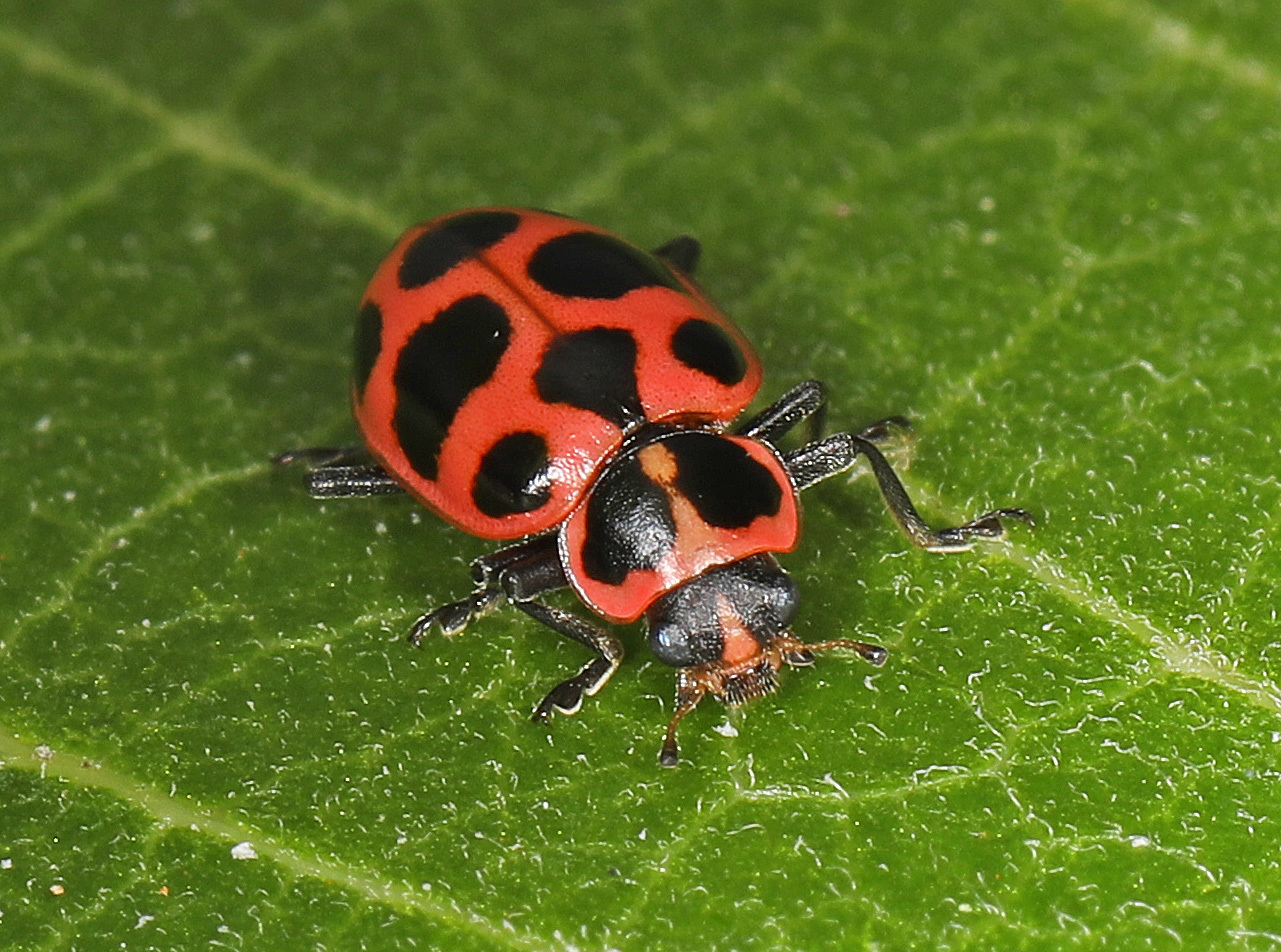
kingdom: Animalia
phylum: Arthropoda
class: Insecta
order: Coleoptera
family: Coccinellidae
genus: Coleomegilla
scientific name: Coleomegilla maculata
